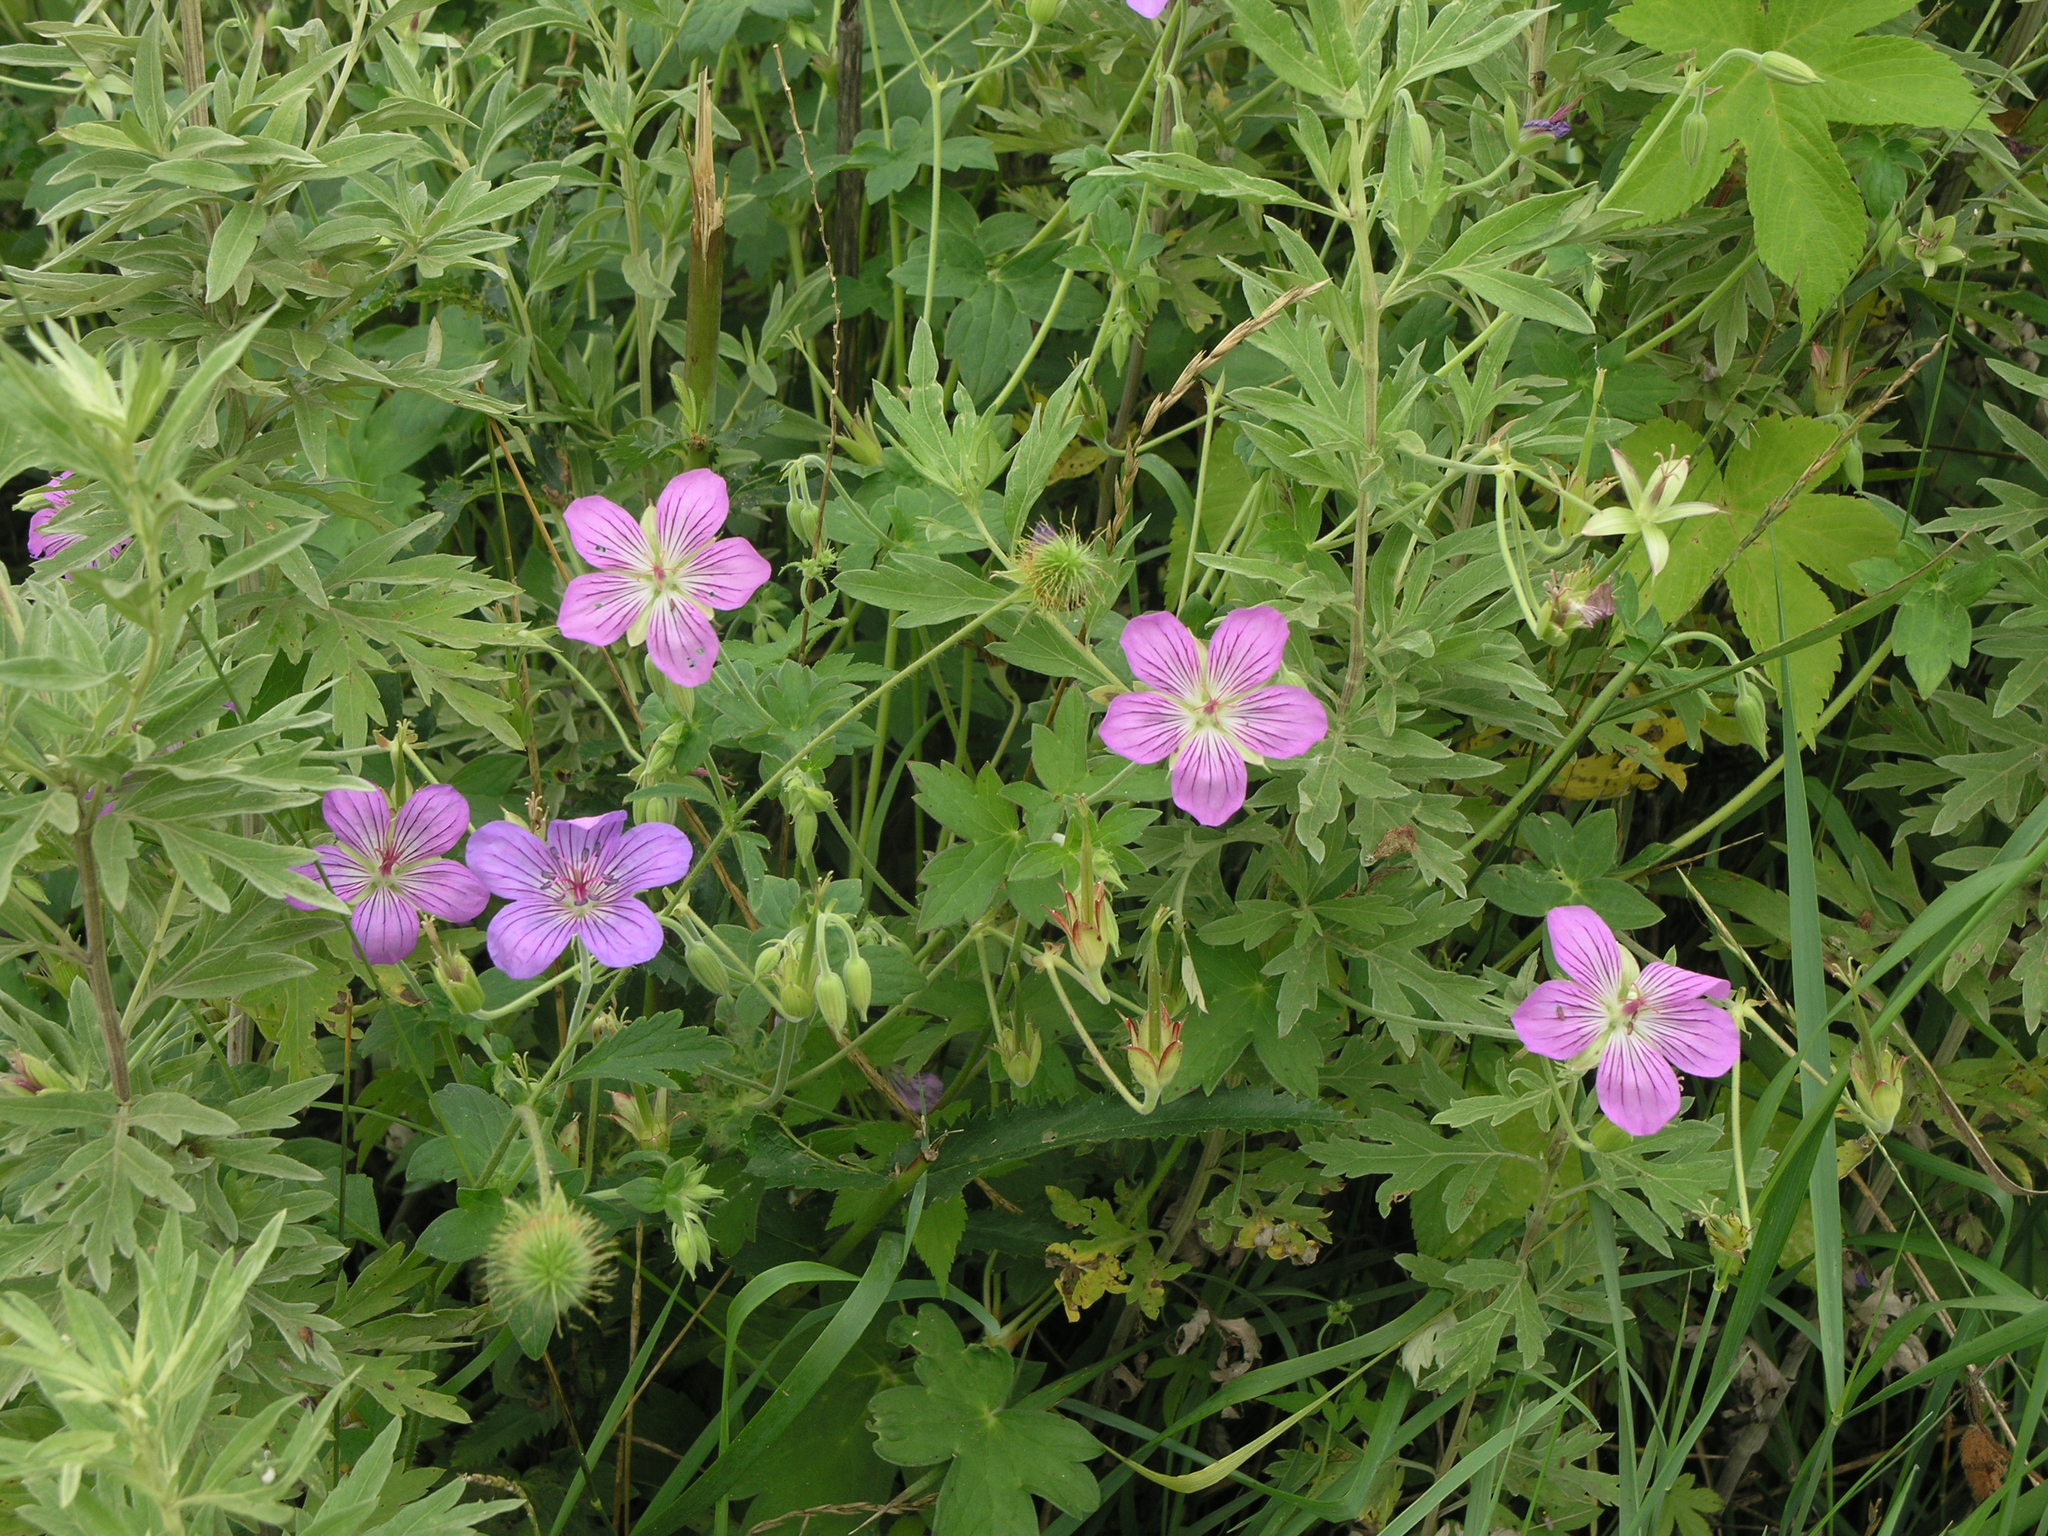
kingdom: Plantae
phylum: Tracheophyta
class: Magnoliopsida
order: Geraniales
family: Geraniaceae
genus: Geranium
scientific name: Geranium wlassovianum
